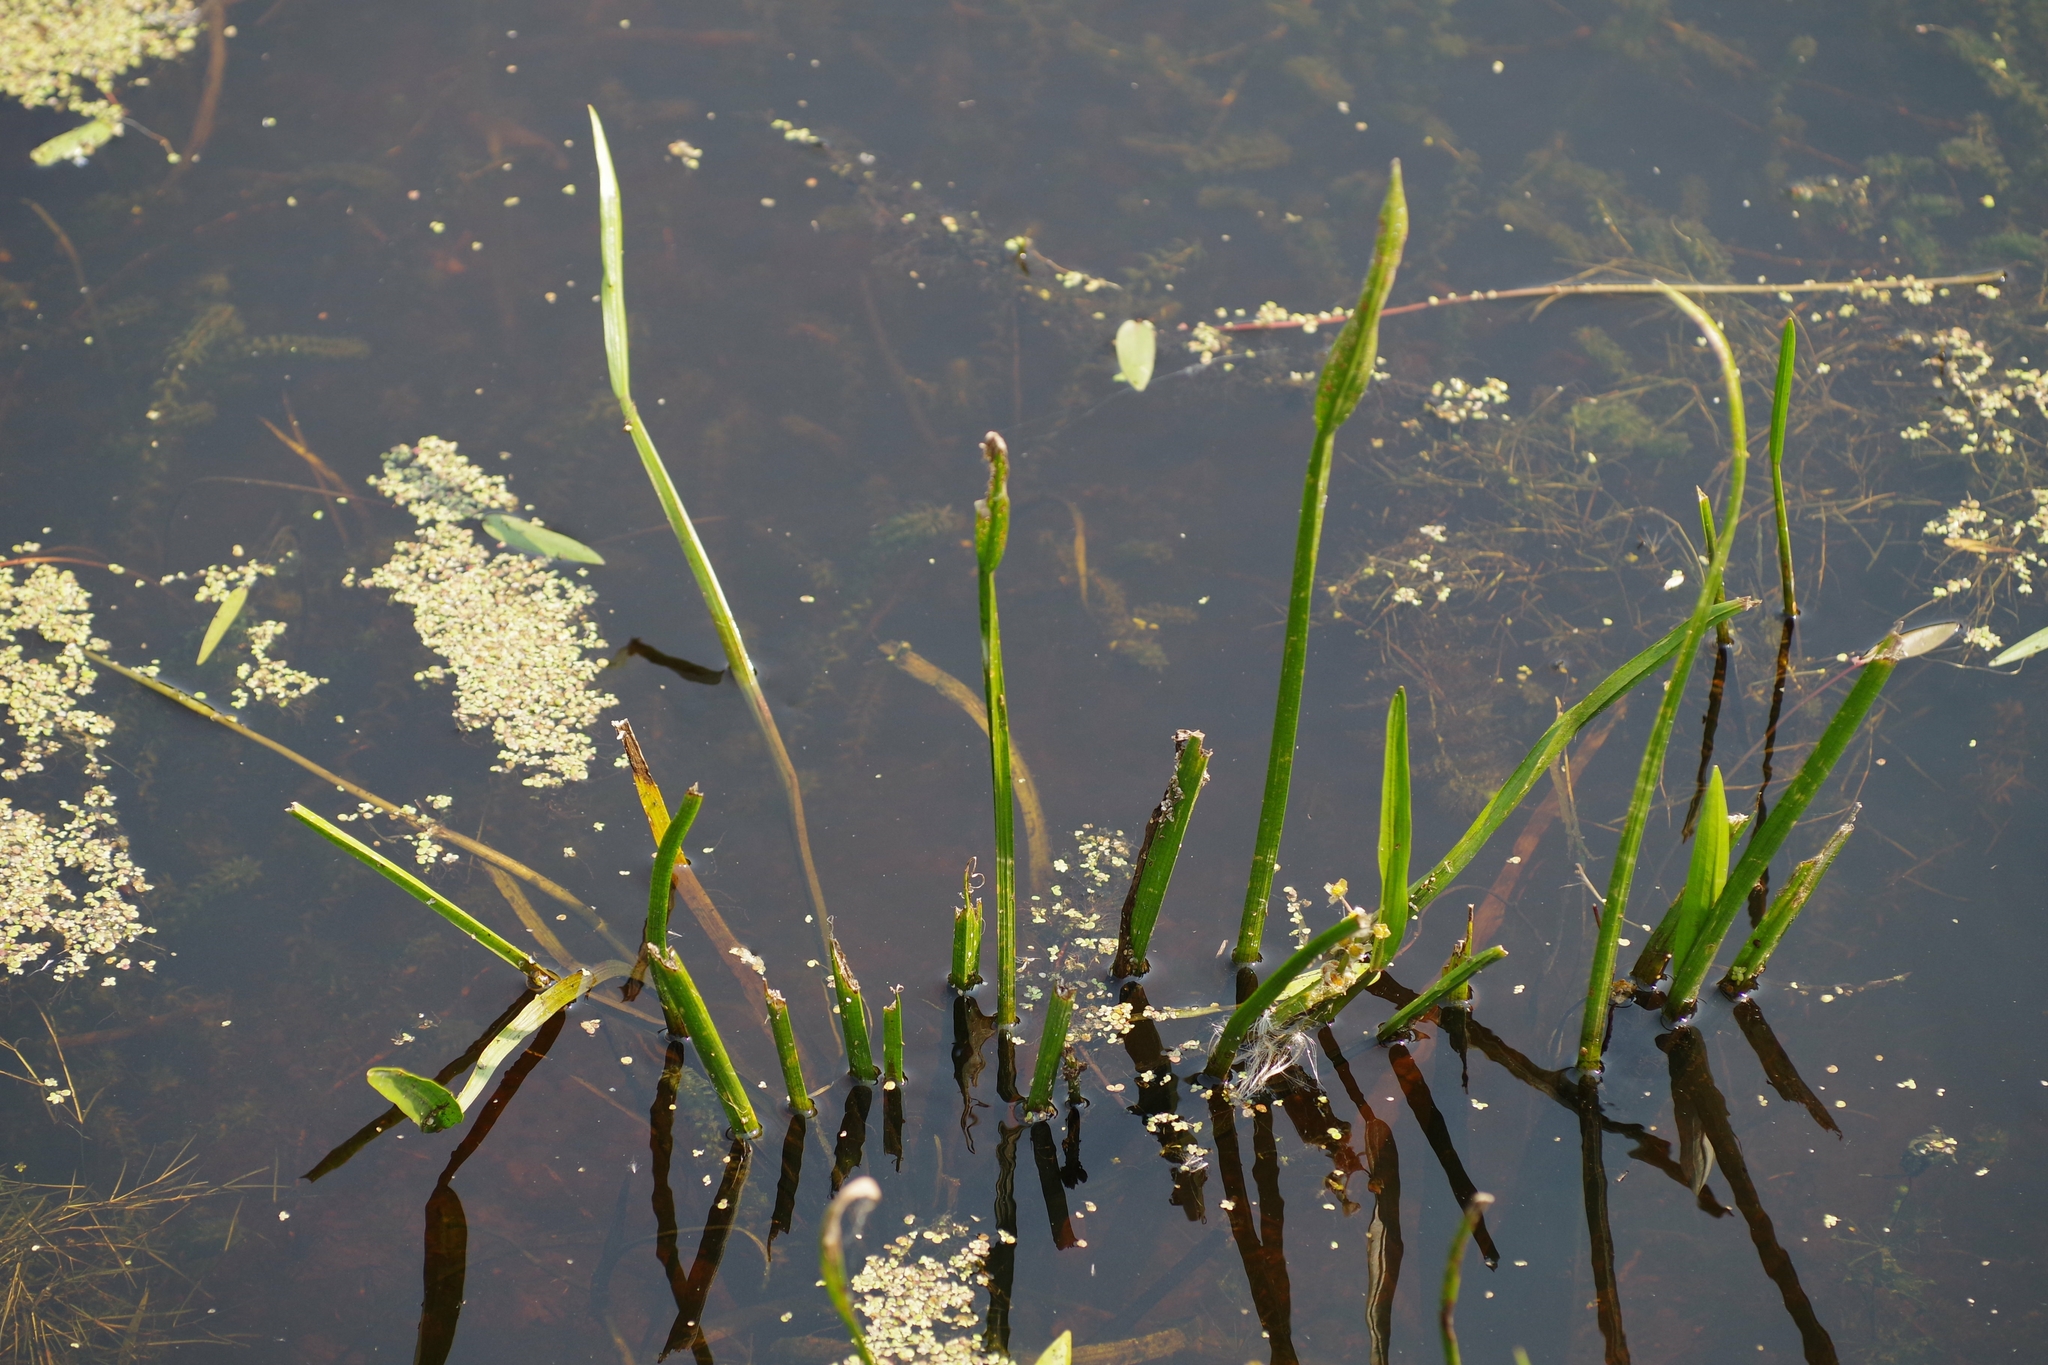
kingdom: Plantae
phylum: Tracheophyta
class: Liliopsida
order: Alismatales
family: Alismataceae
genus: Sagittaria
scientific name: Sagittaria rigida
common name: Canadian arrowhead
